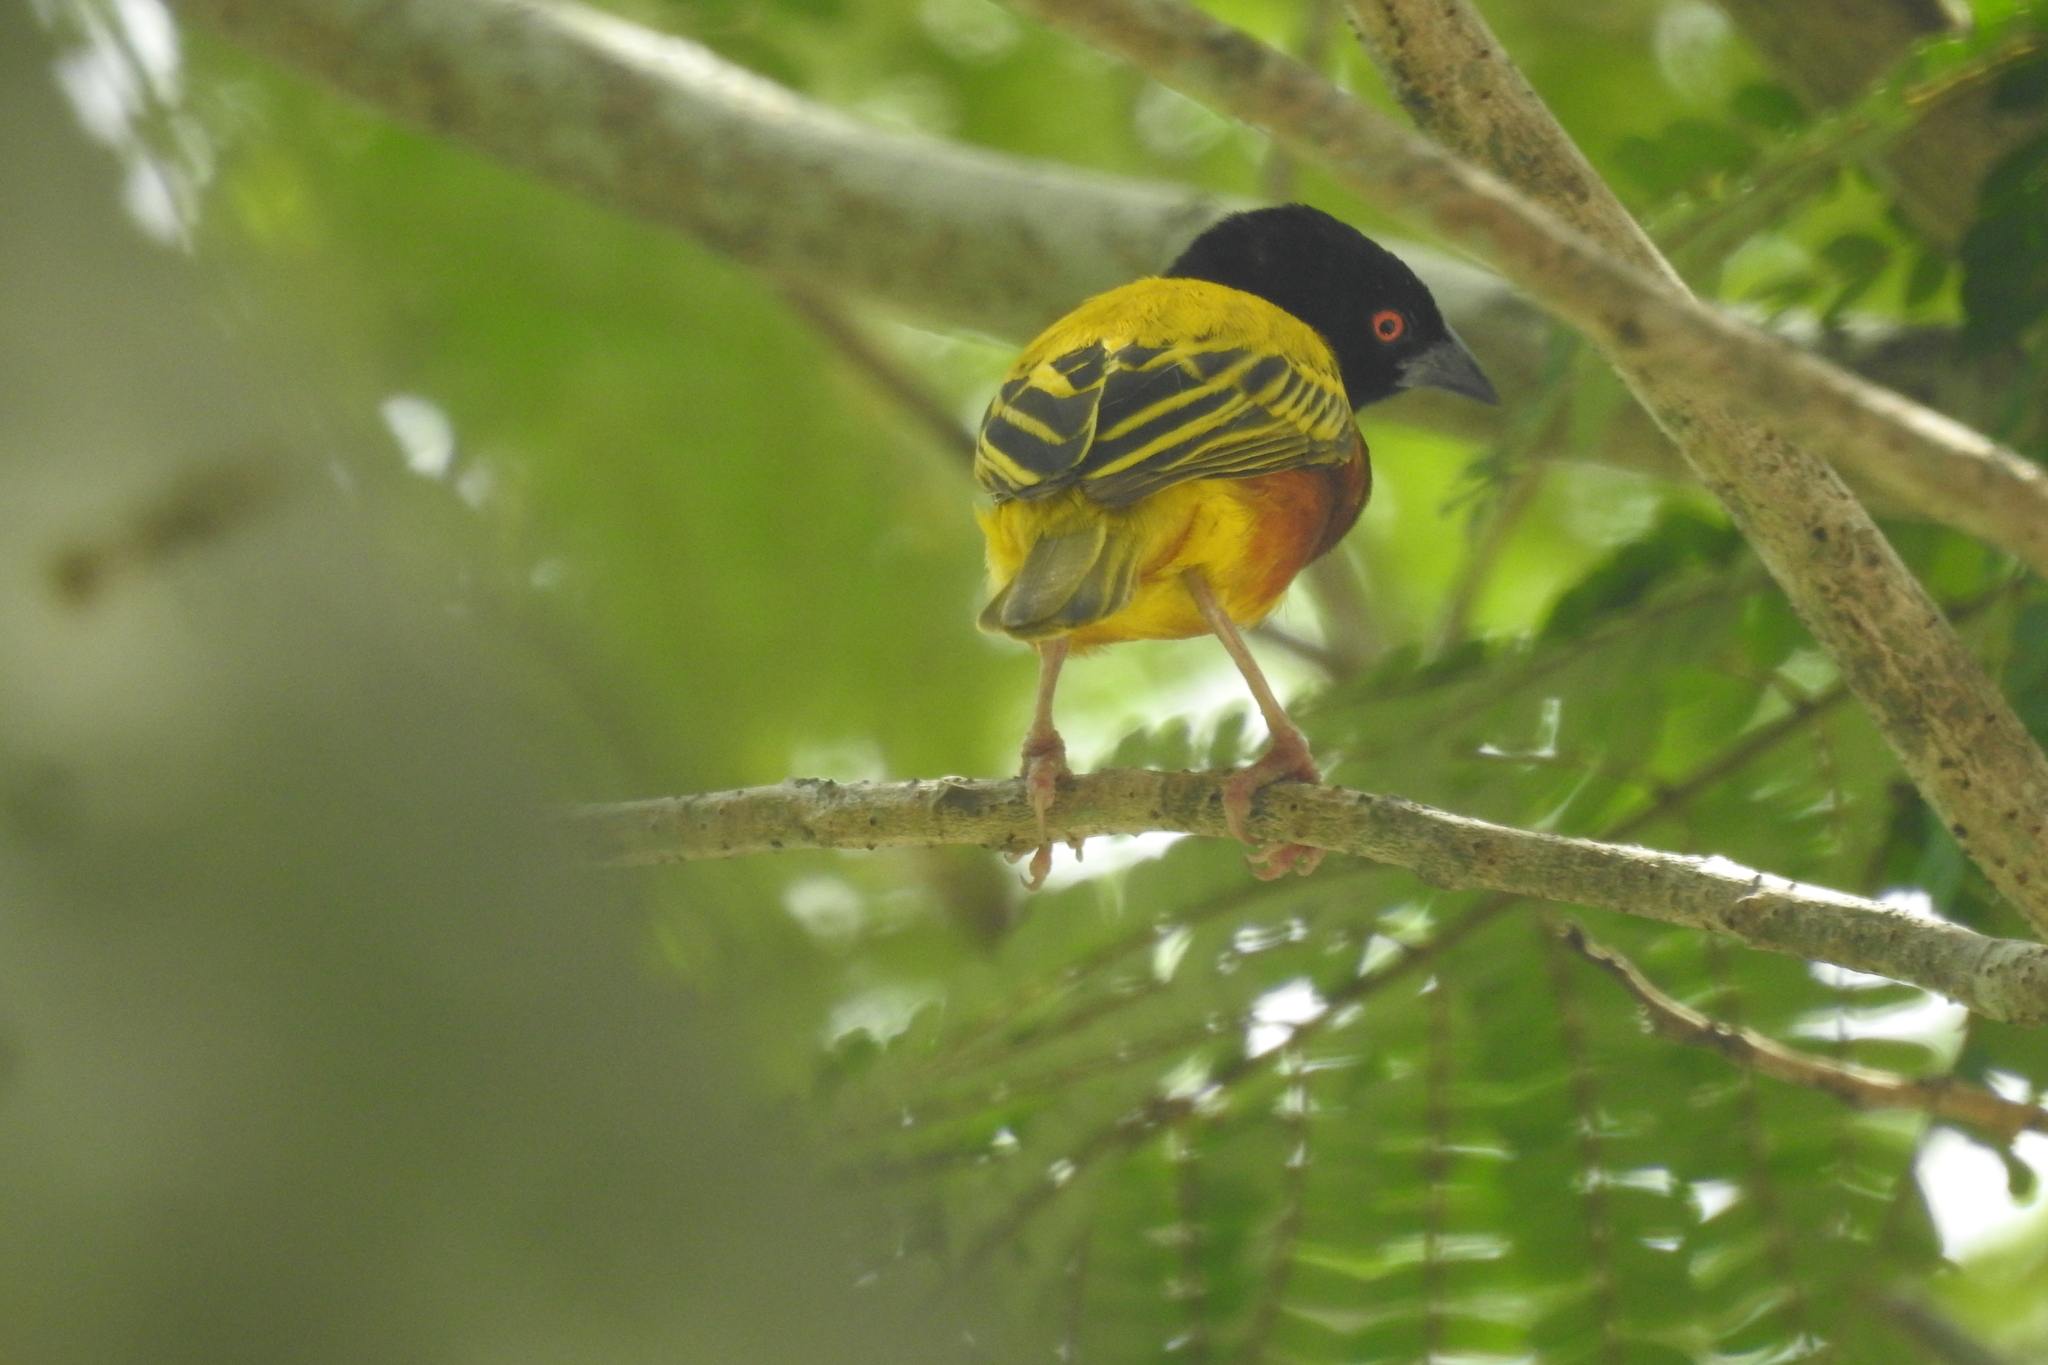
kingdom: Animalia
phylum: Chordata
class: Aves
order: Passeriformes
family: Ploceidae
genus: Ploceus
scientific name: Ploceus jacksoni
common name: Golden-backed weaver
